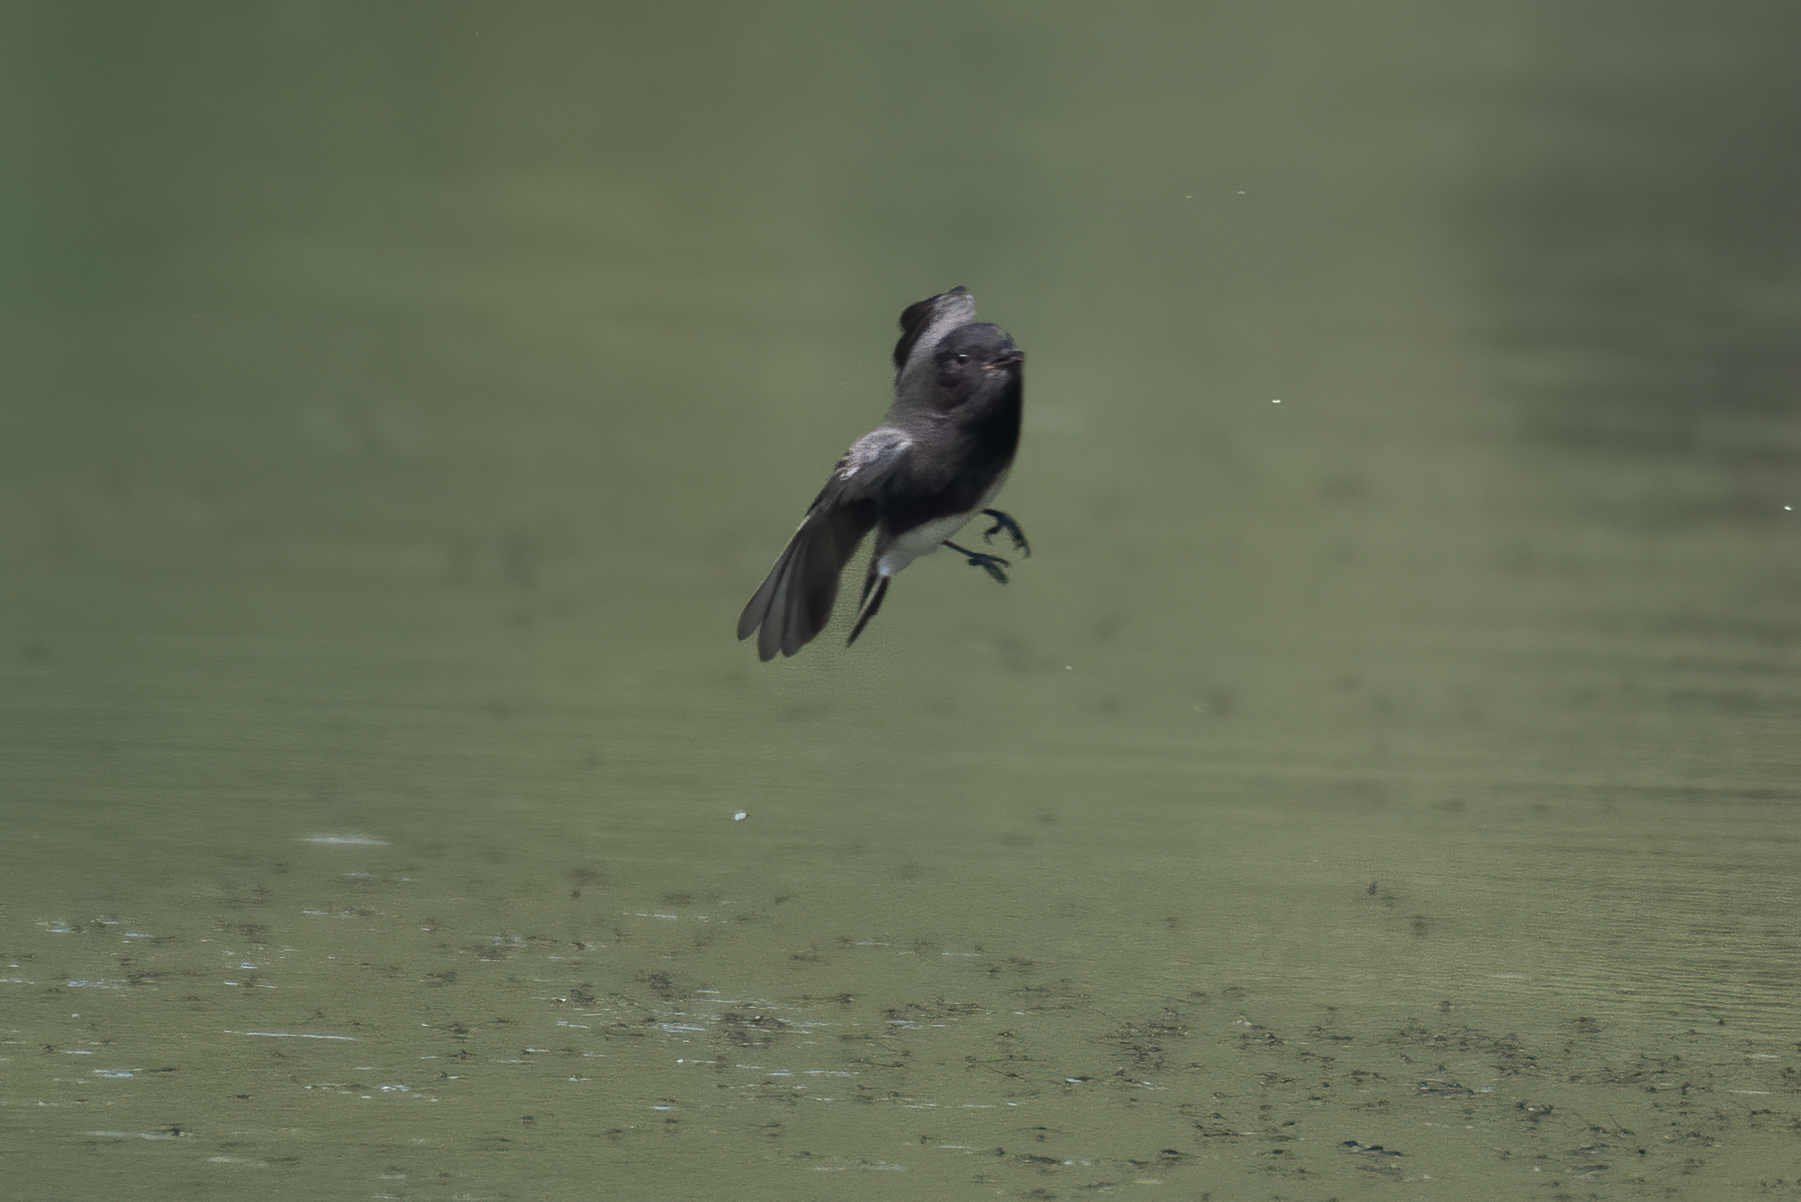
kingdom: Animalia
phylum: Chordata
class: Aves
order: Passeriformes
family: Tyrannidae
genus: Sayornis
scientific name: Sayornis nigricans
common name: Black phoebe
